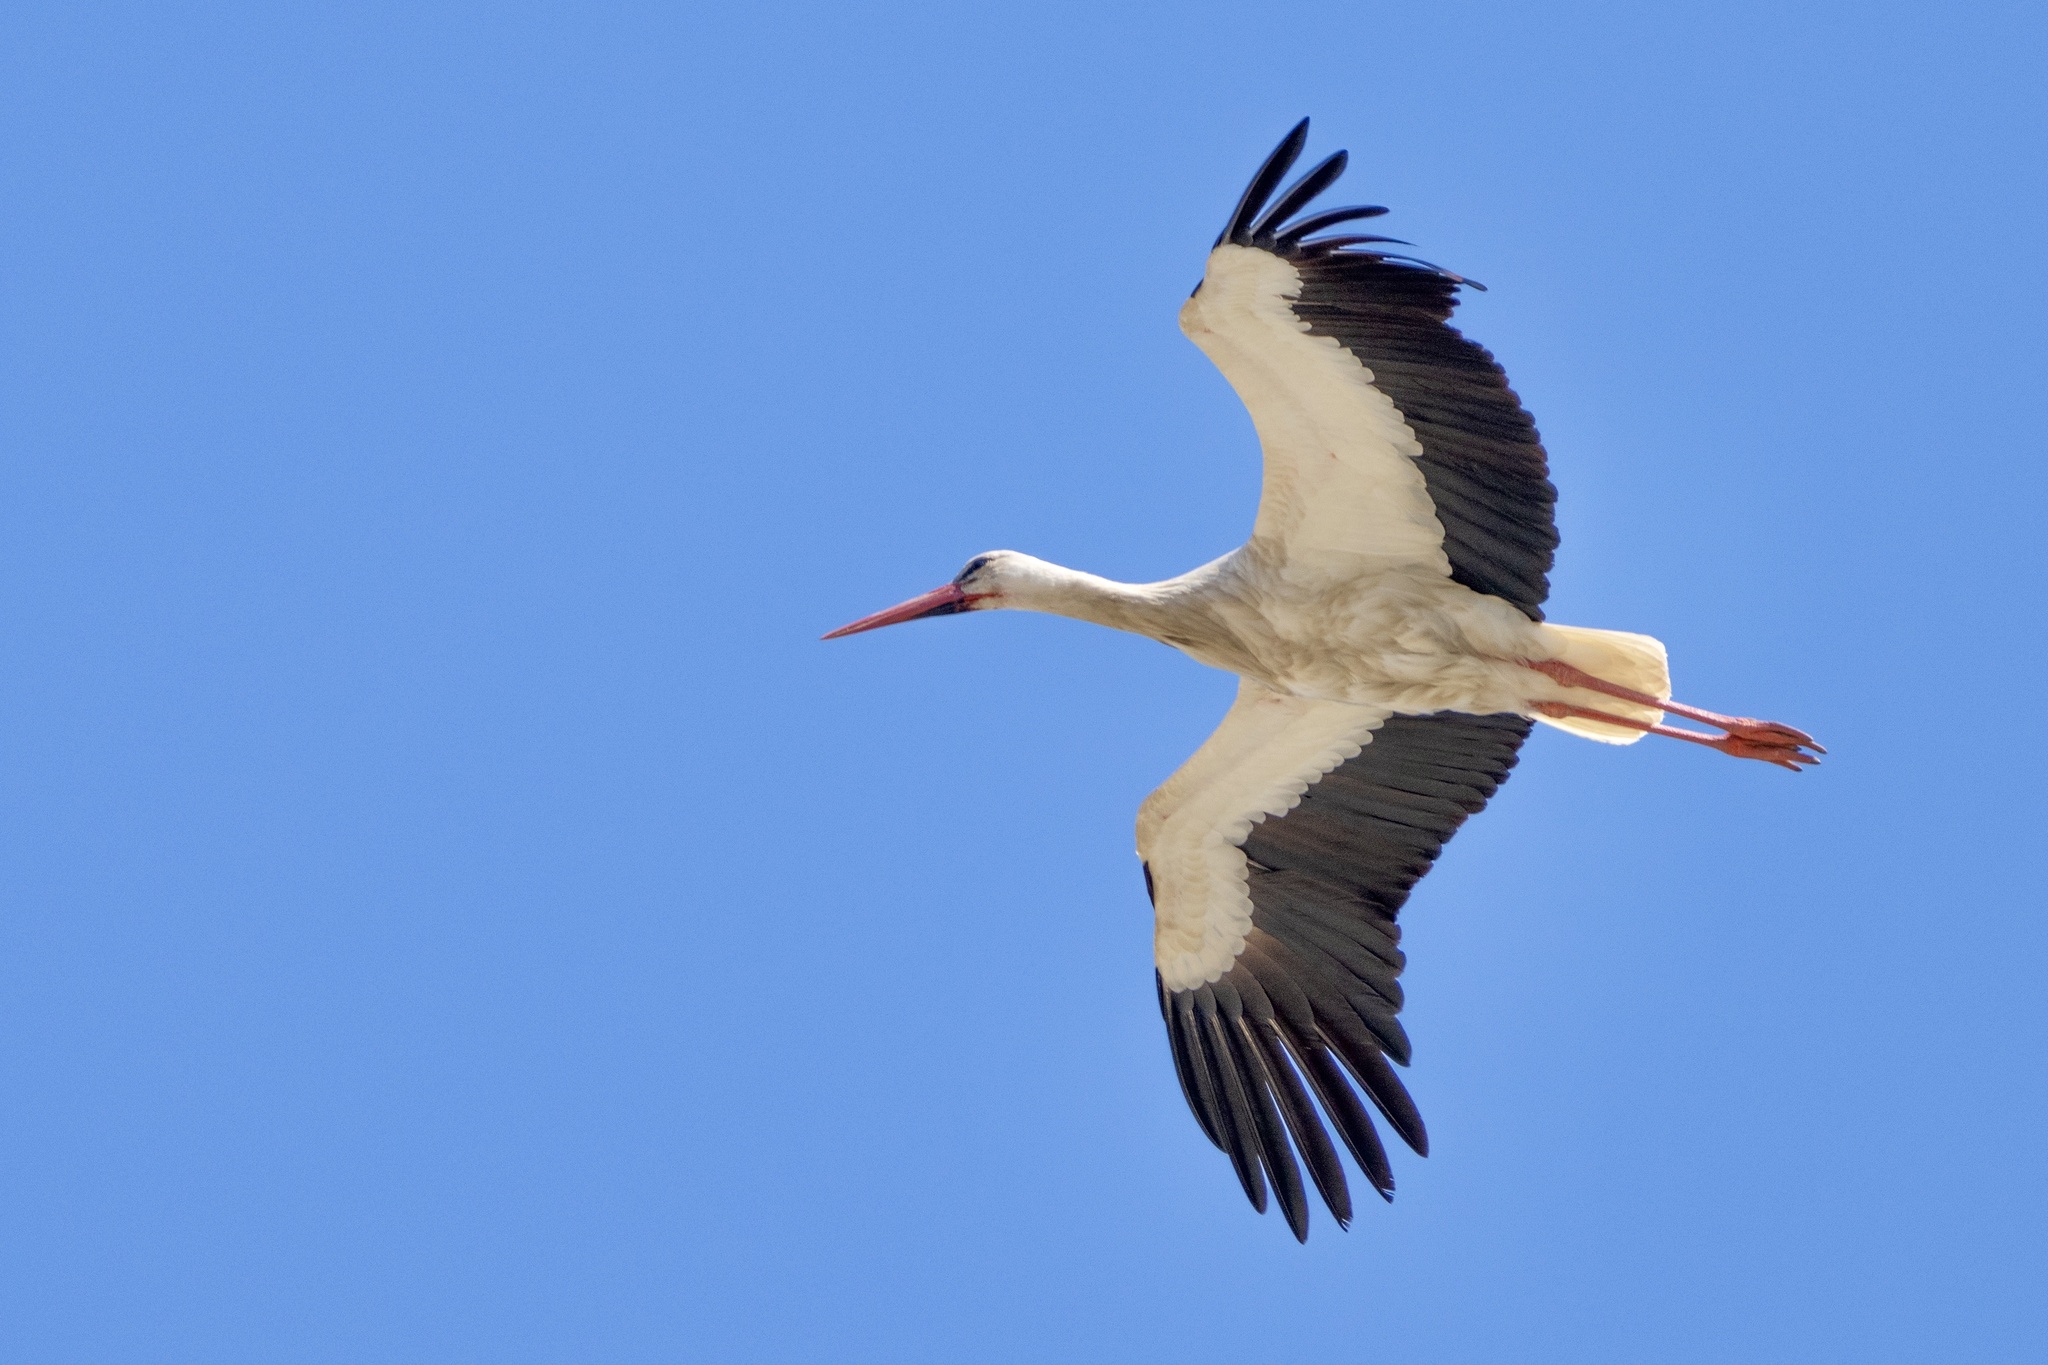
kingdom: Animalia
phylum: Chordata
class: Aves
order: Ciconiiformes
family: Ciconiidae
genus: Ciconia
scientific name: Ciconia ciconia
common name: White stork
